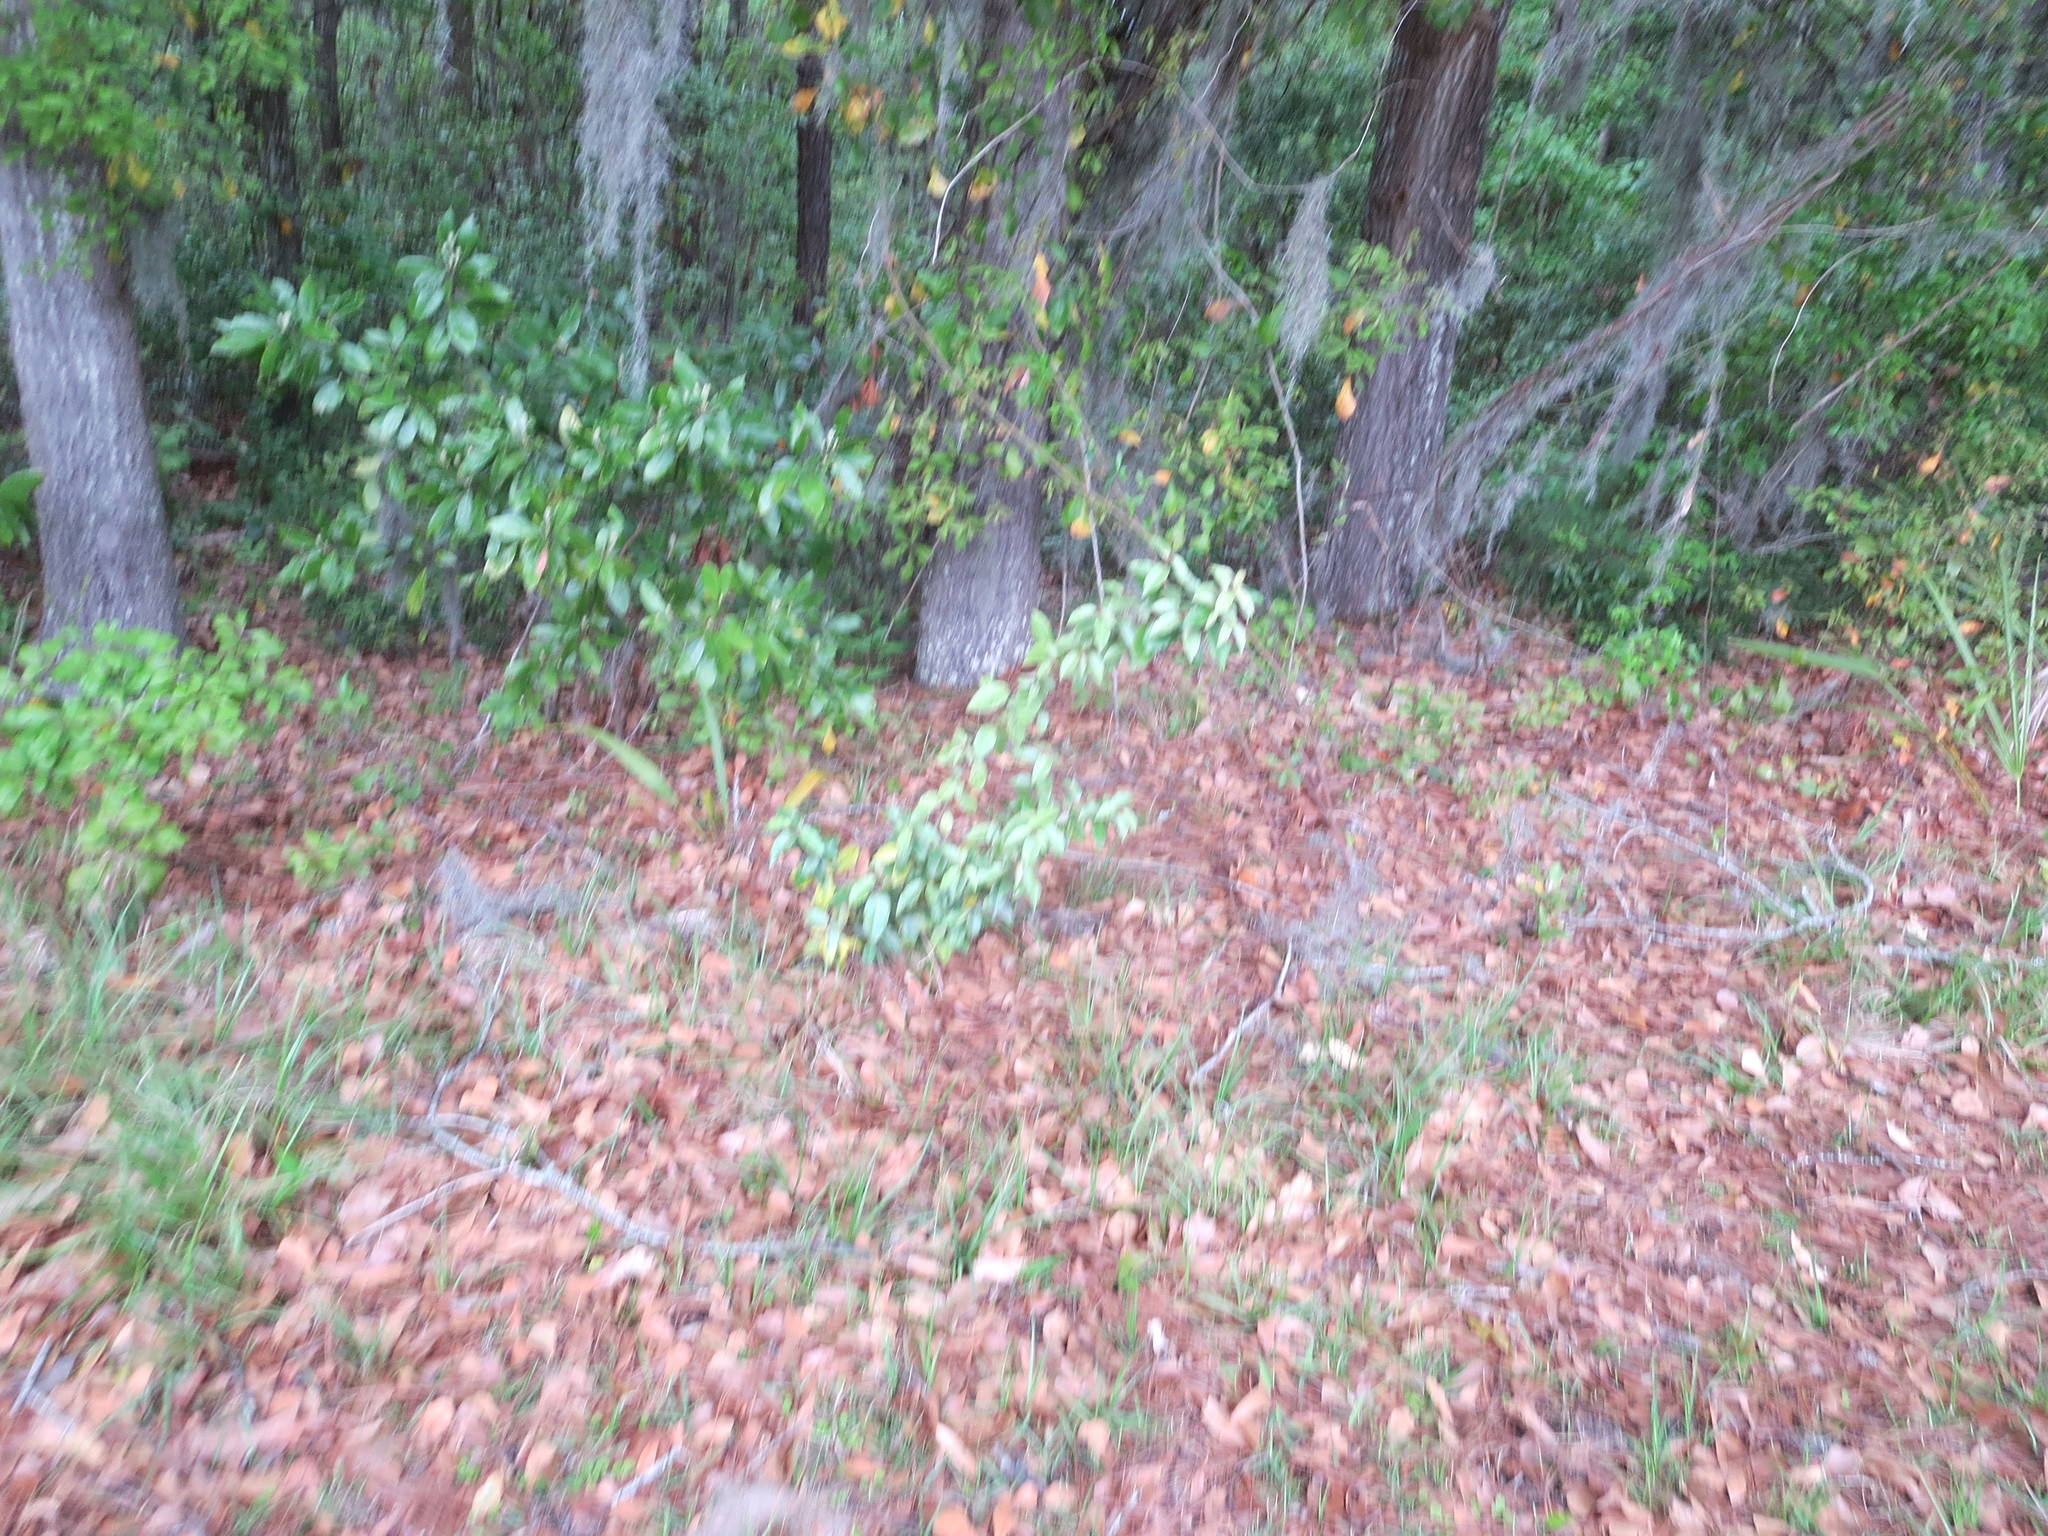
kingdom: Plantae
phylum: Tracheophyta
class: Magnoliopsida
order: Rosales
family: Elaeagnaceae
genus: Elaeagnus
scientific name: Elaeagnus pungens
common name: Spiny oleaster
